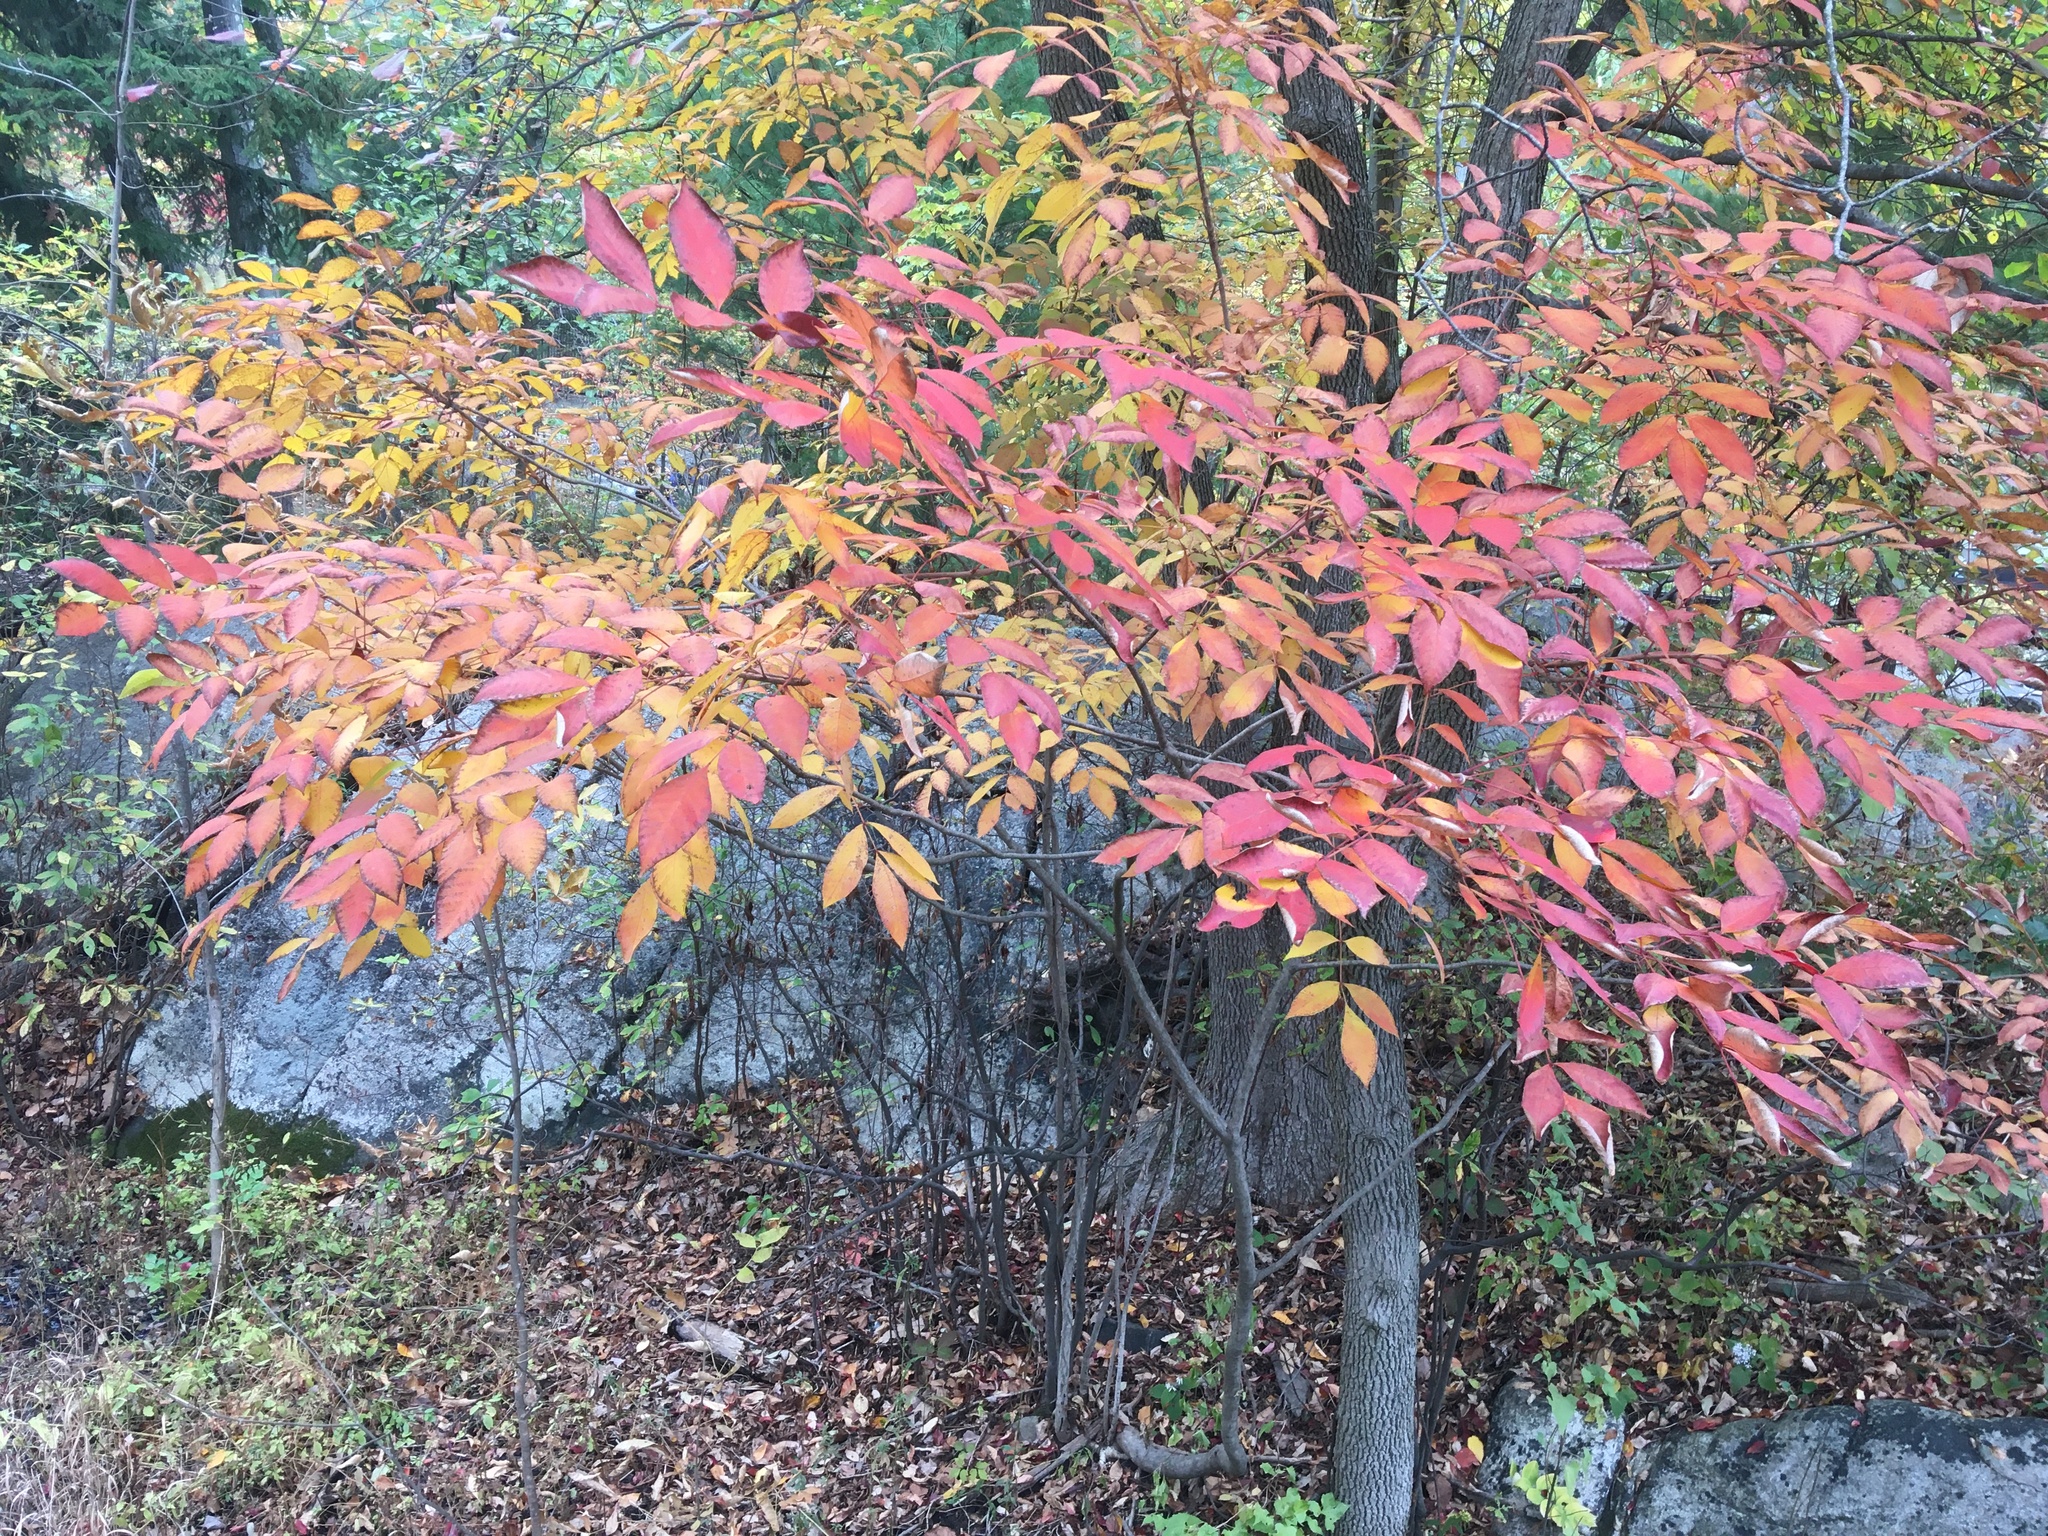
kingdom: Plantae
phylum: Tracheophyta
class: Magnoliopsida
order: Sapindales
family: Anacardiaceae
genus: Toxicodendron
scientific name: Toxicodendron vernix
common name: Poison sumac
